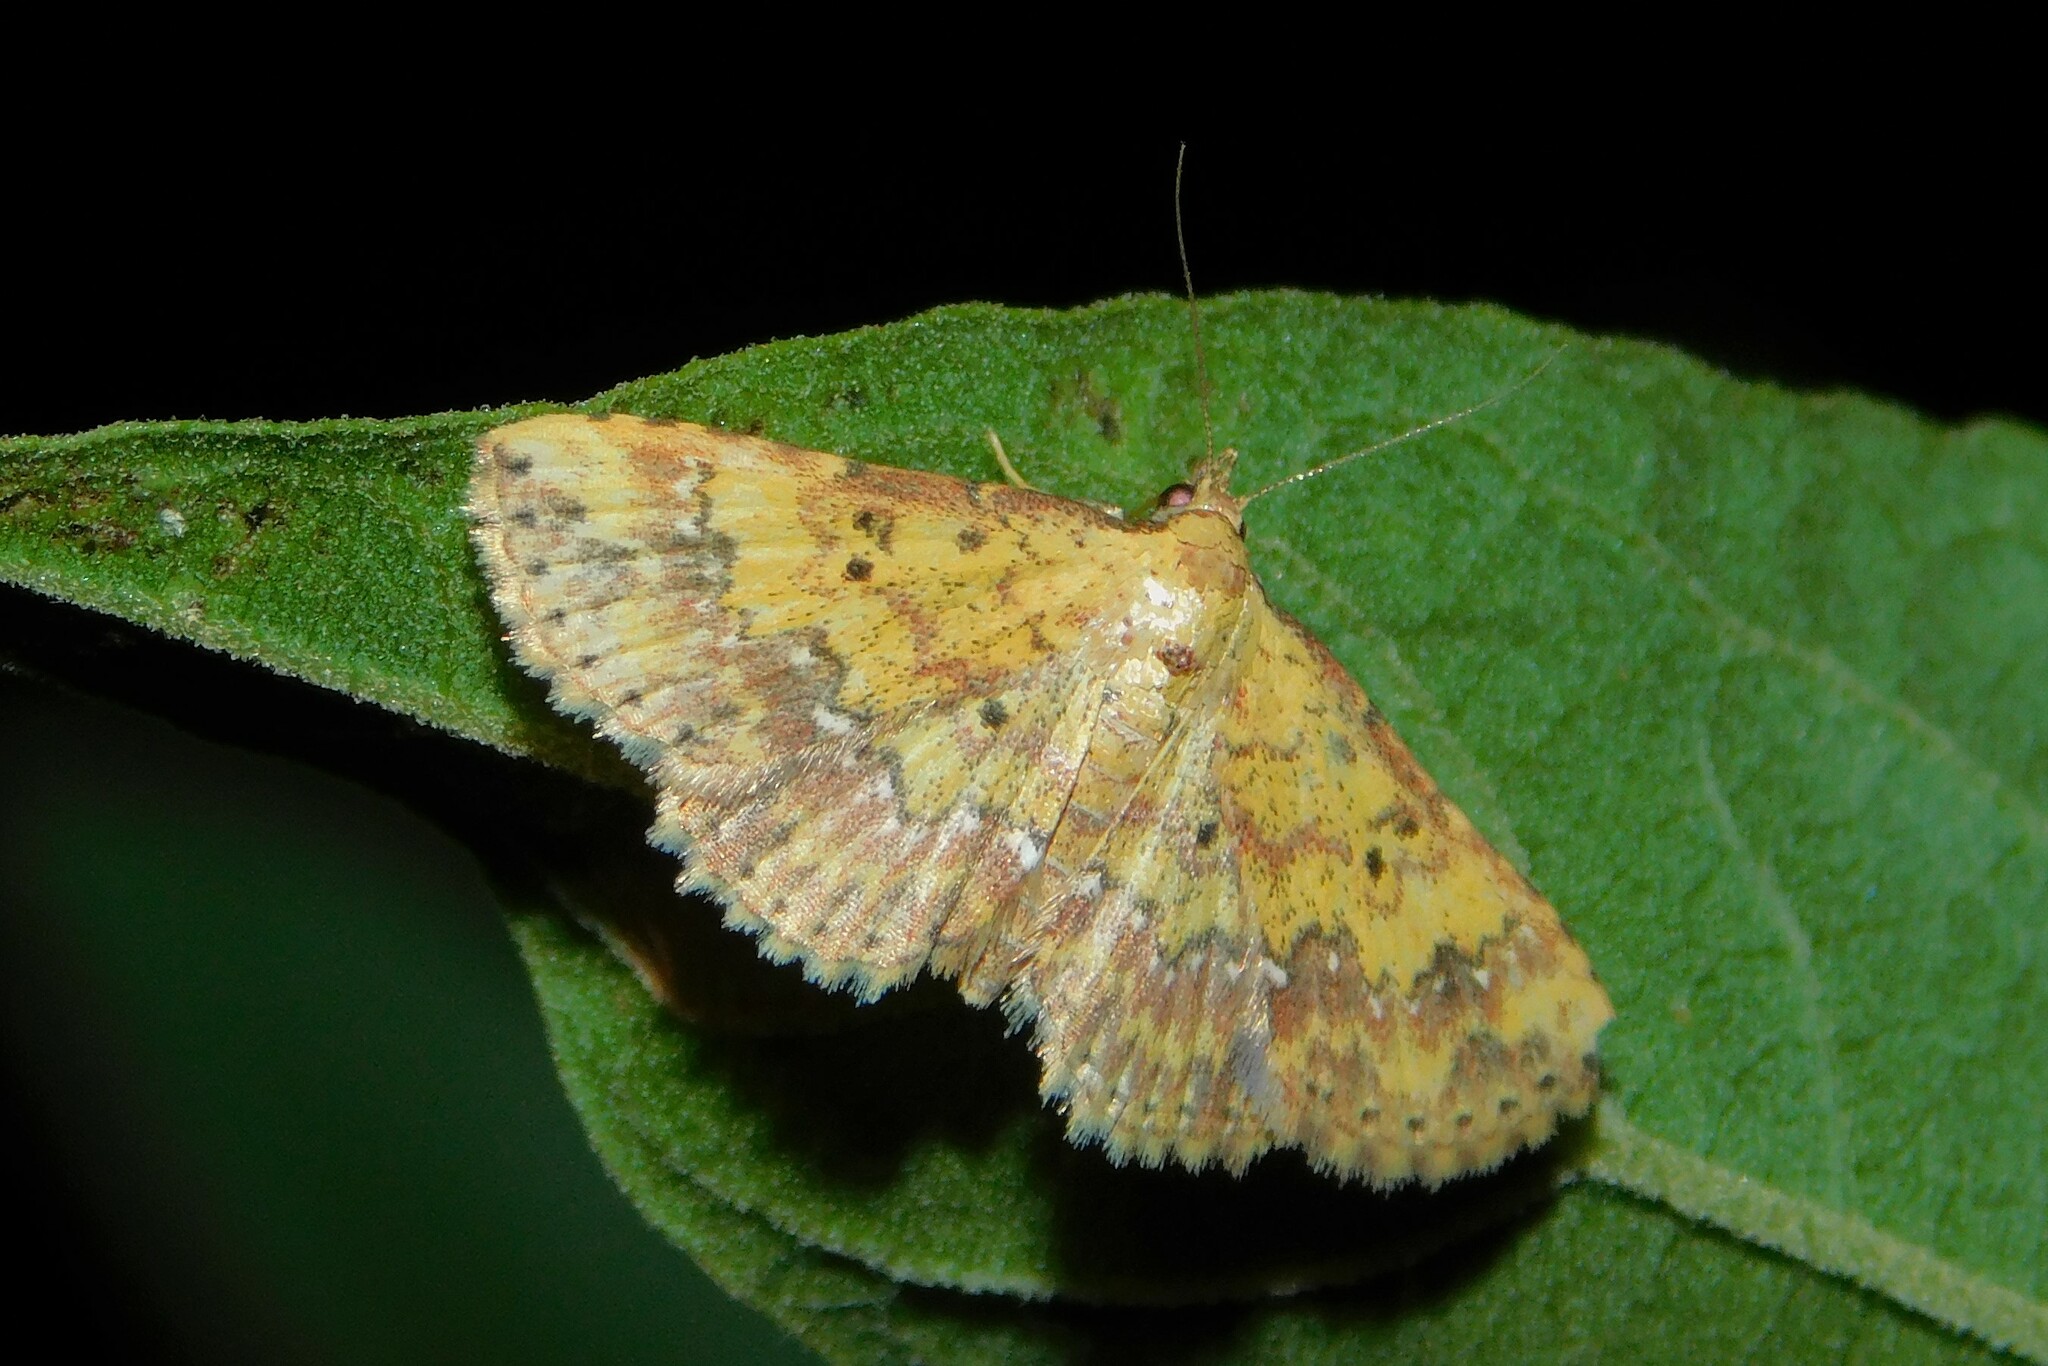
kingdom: Animalia
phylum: Arthropoda
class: Insecta
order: Lepidoptera
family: Noctuidae
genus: Cerynea
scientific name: Cerynea thermesialis
